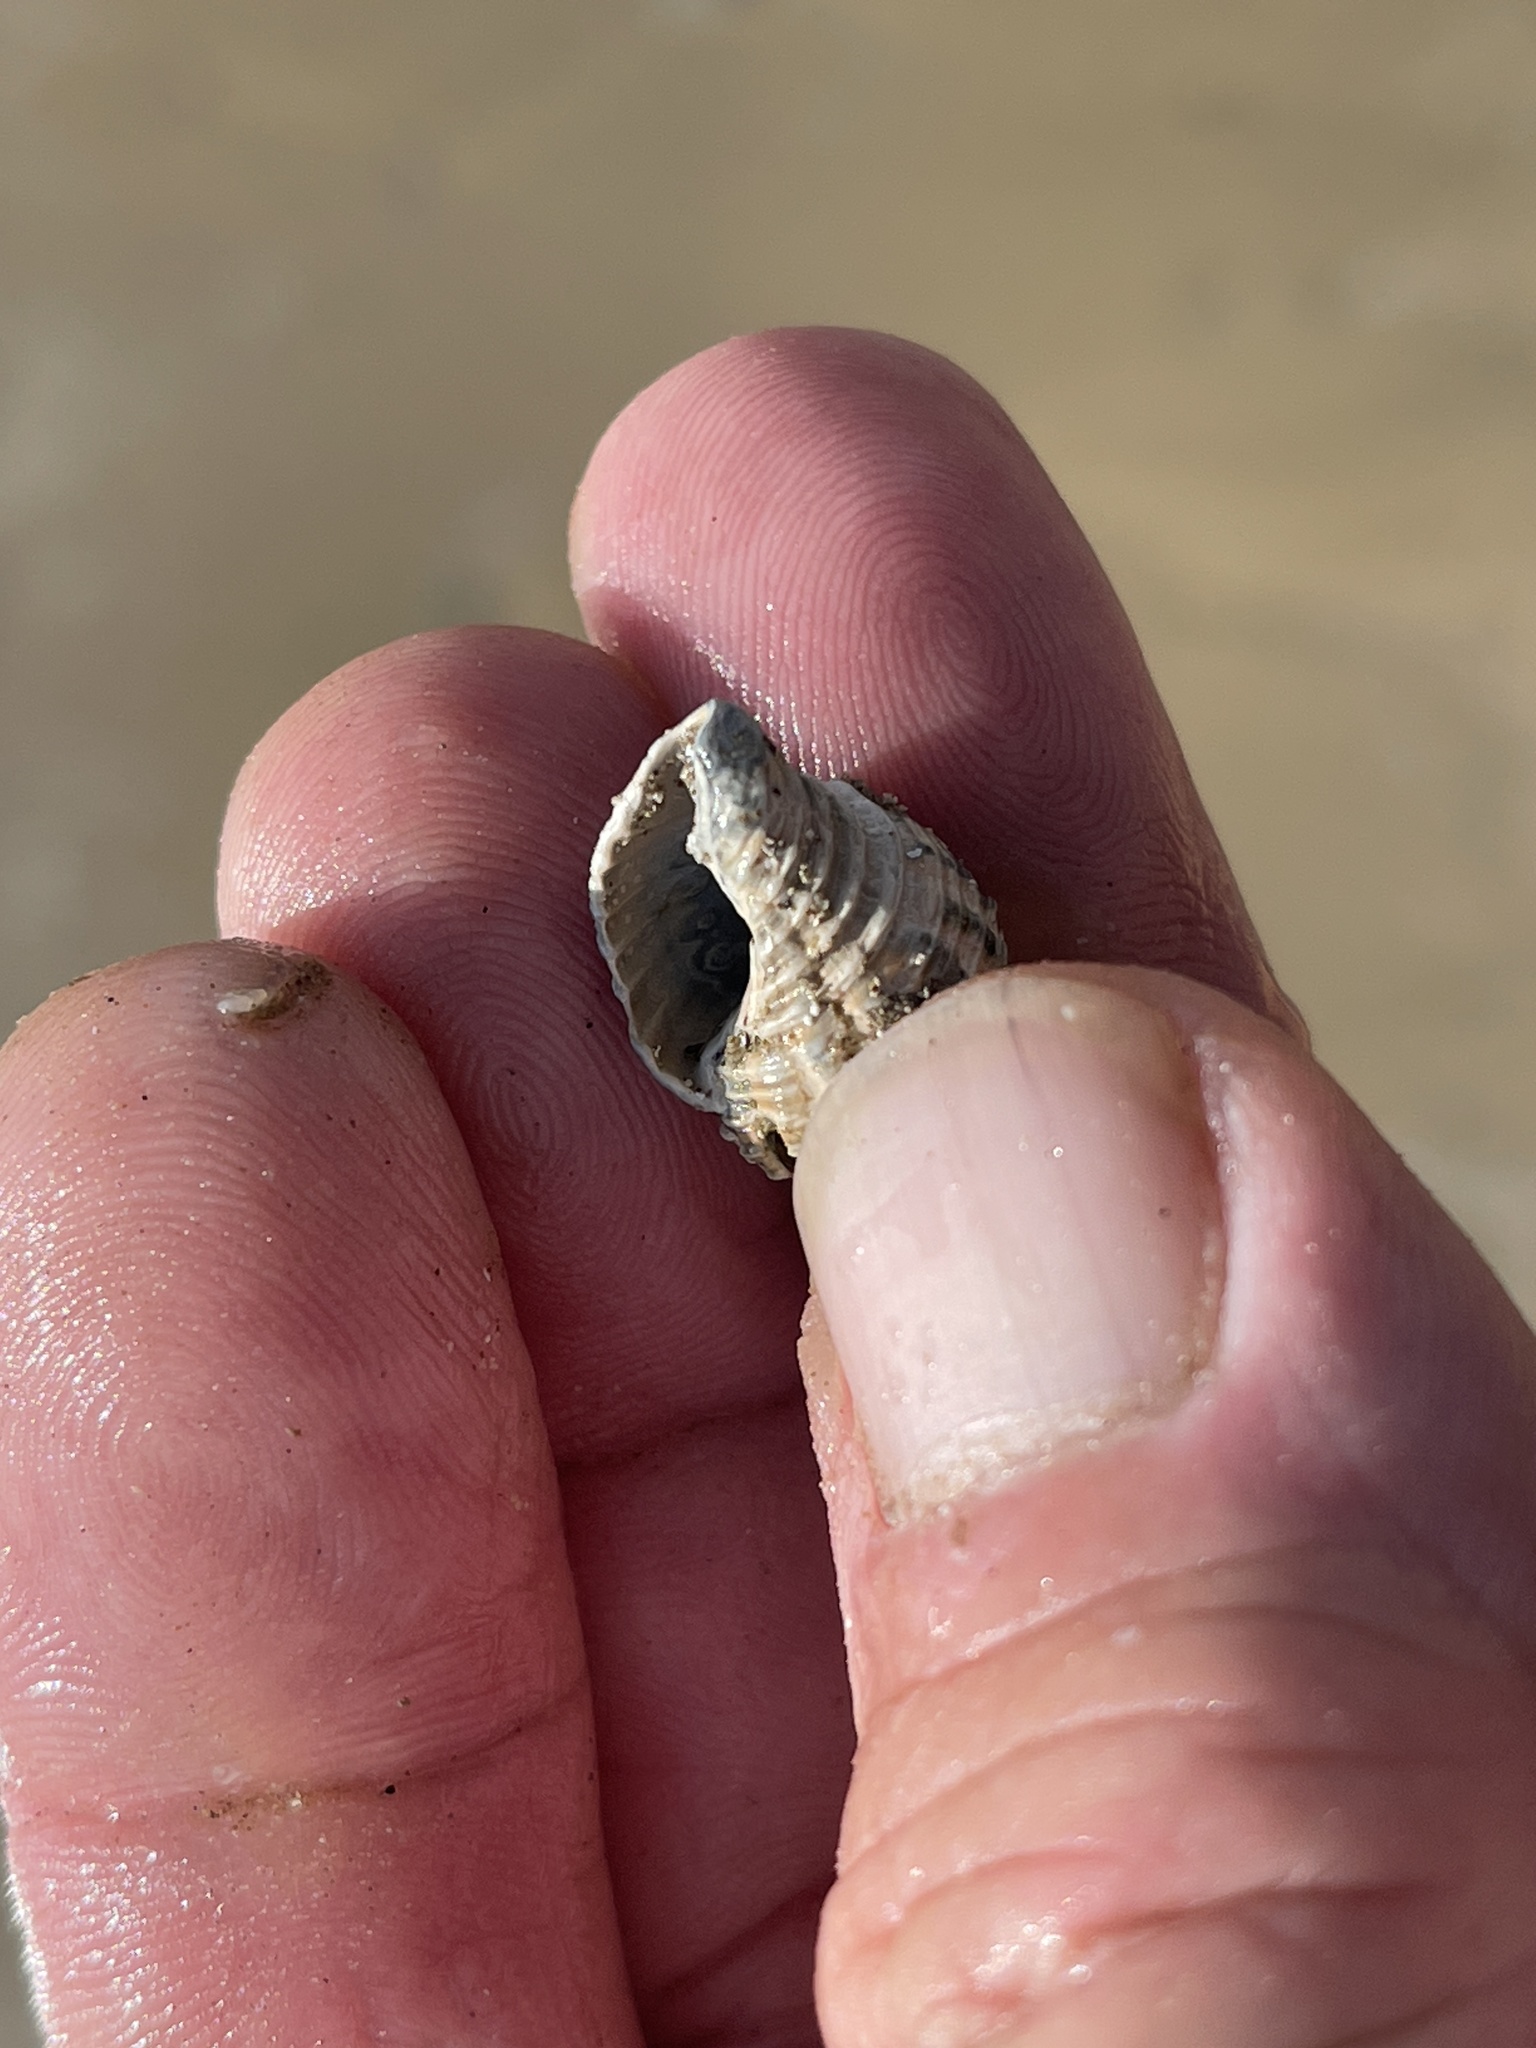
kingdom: Animalia
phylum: Mollusca
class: Gastropoda
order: Neogastropoda
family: Pisaniidae
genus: Solenosteira
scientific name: Solenosteira cancellaria
